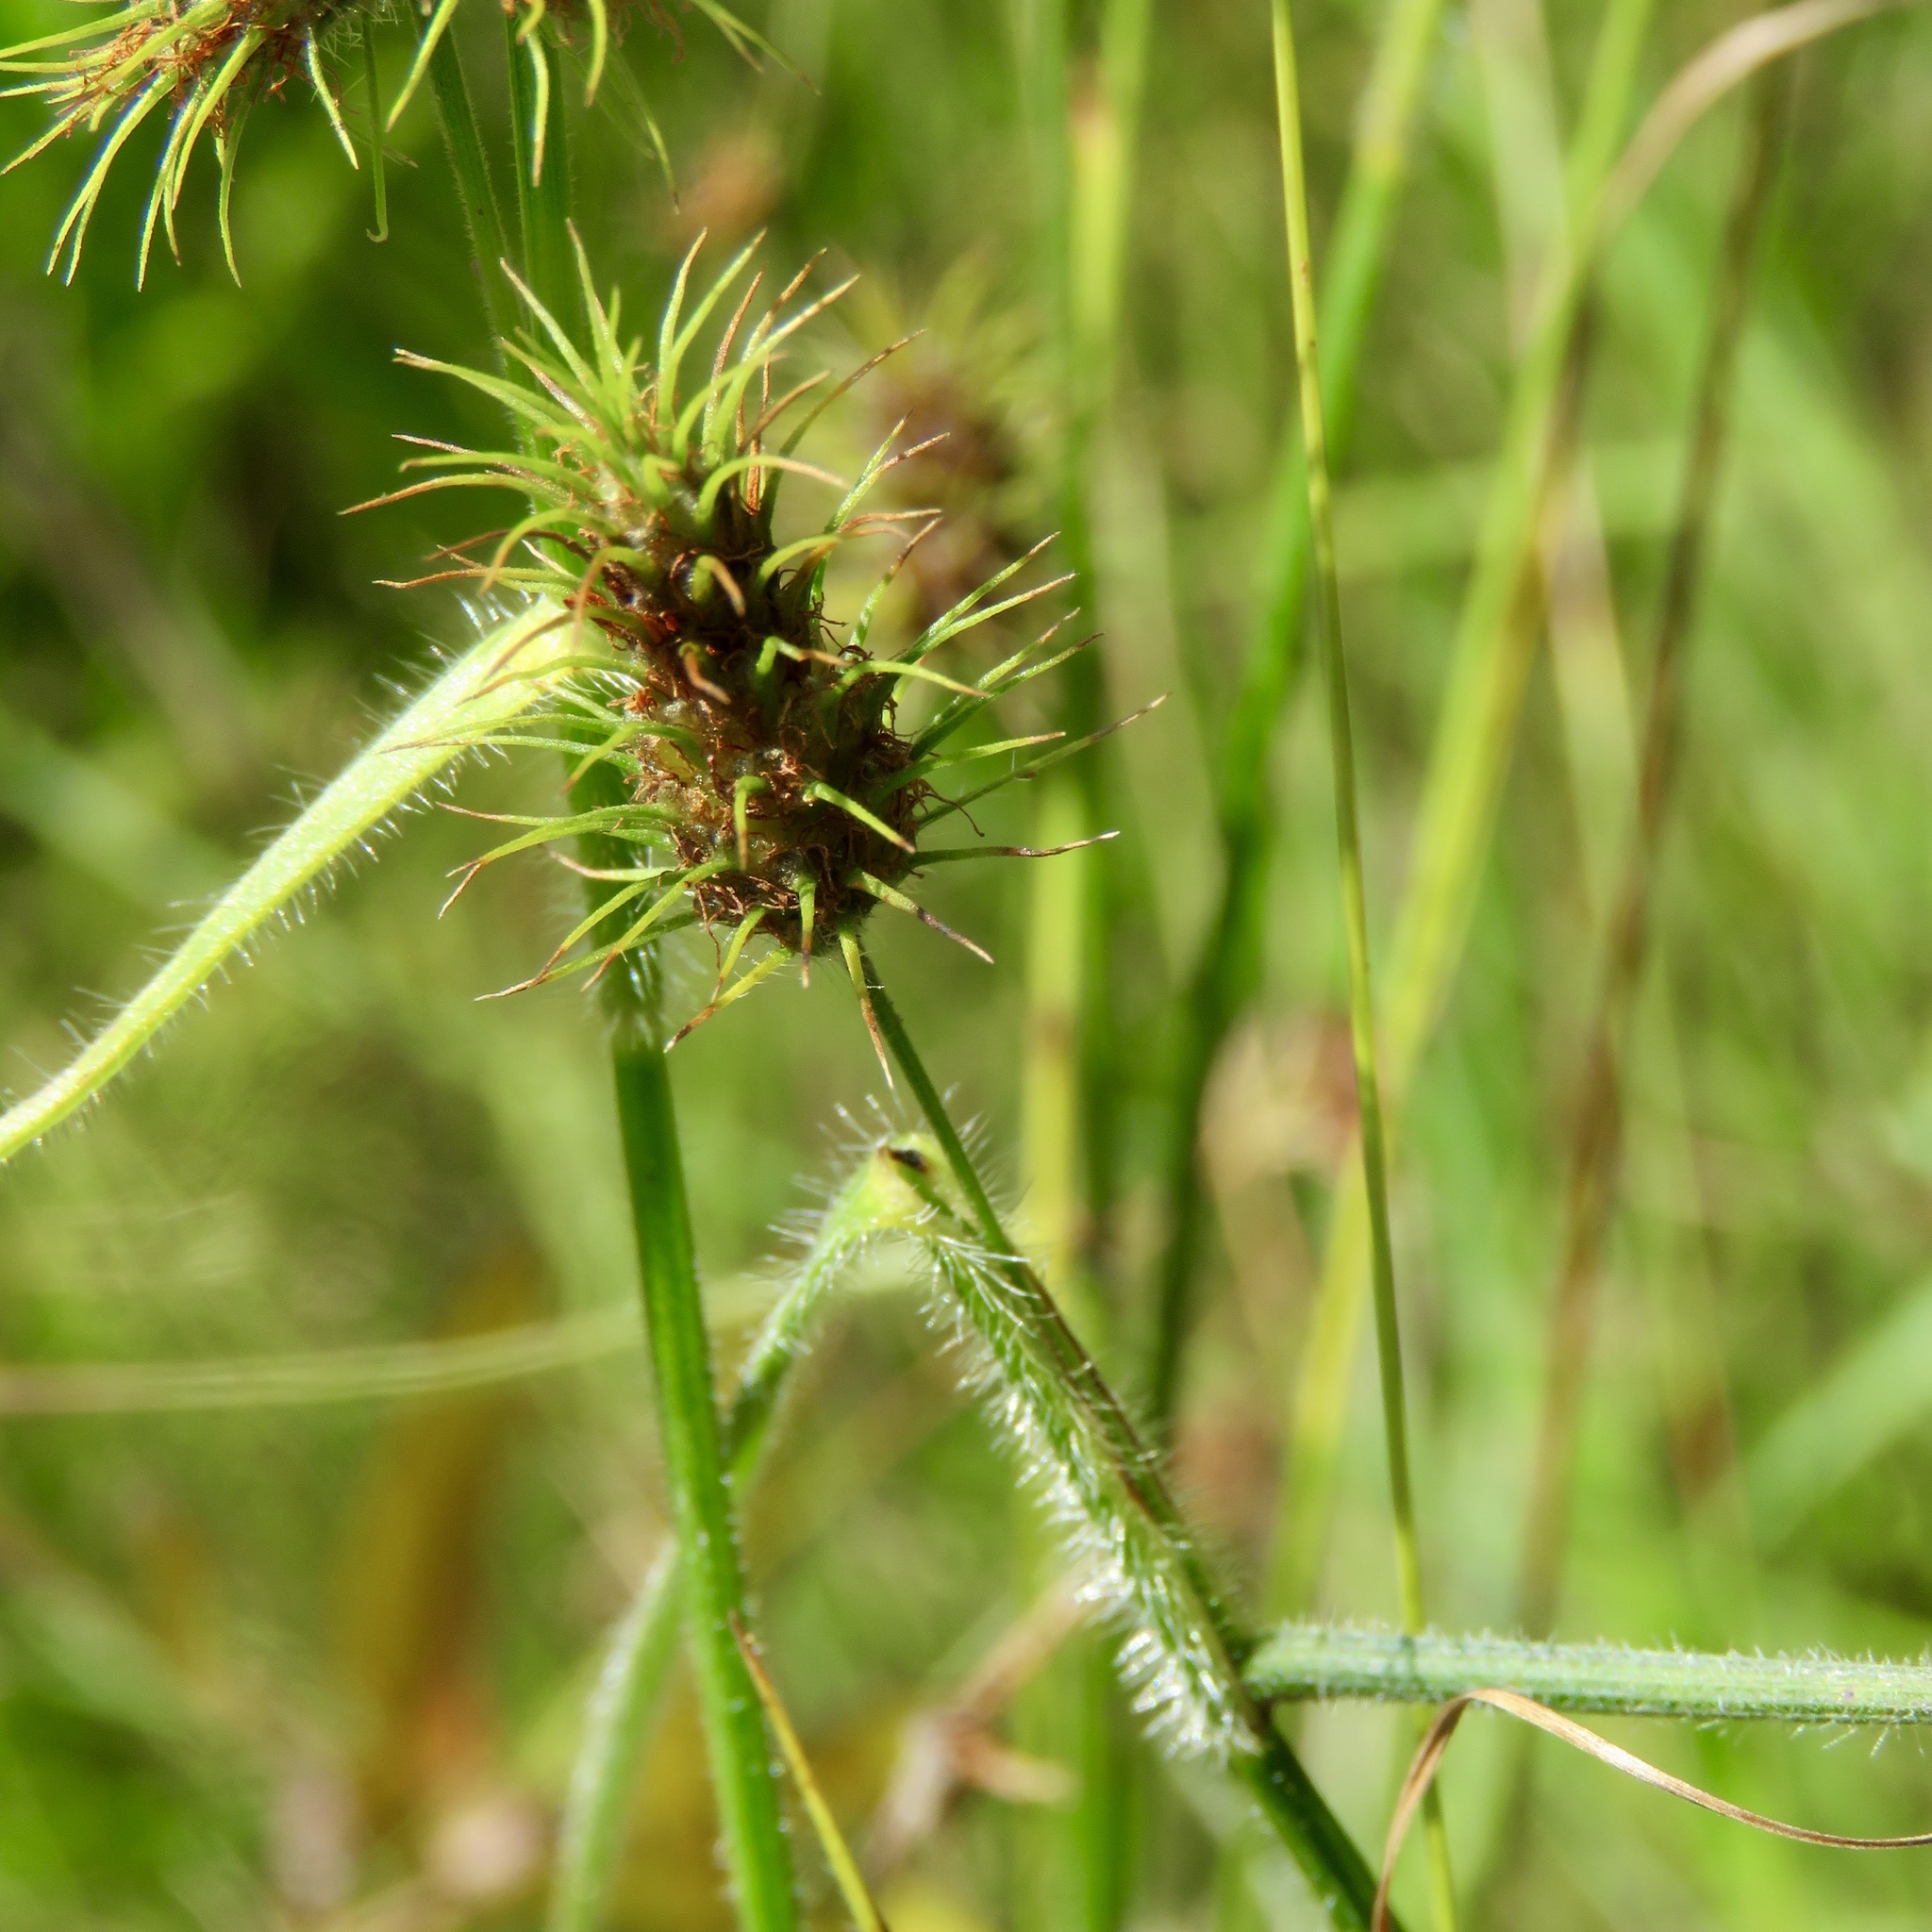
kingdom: Plantae
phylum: Tracheophyta
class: Liliopsida
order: Poales
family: Cyperaceae
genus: Fuirena
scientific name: Fuirena squarrosa
